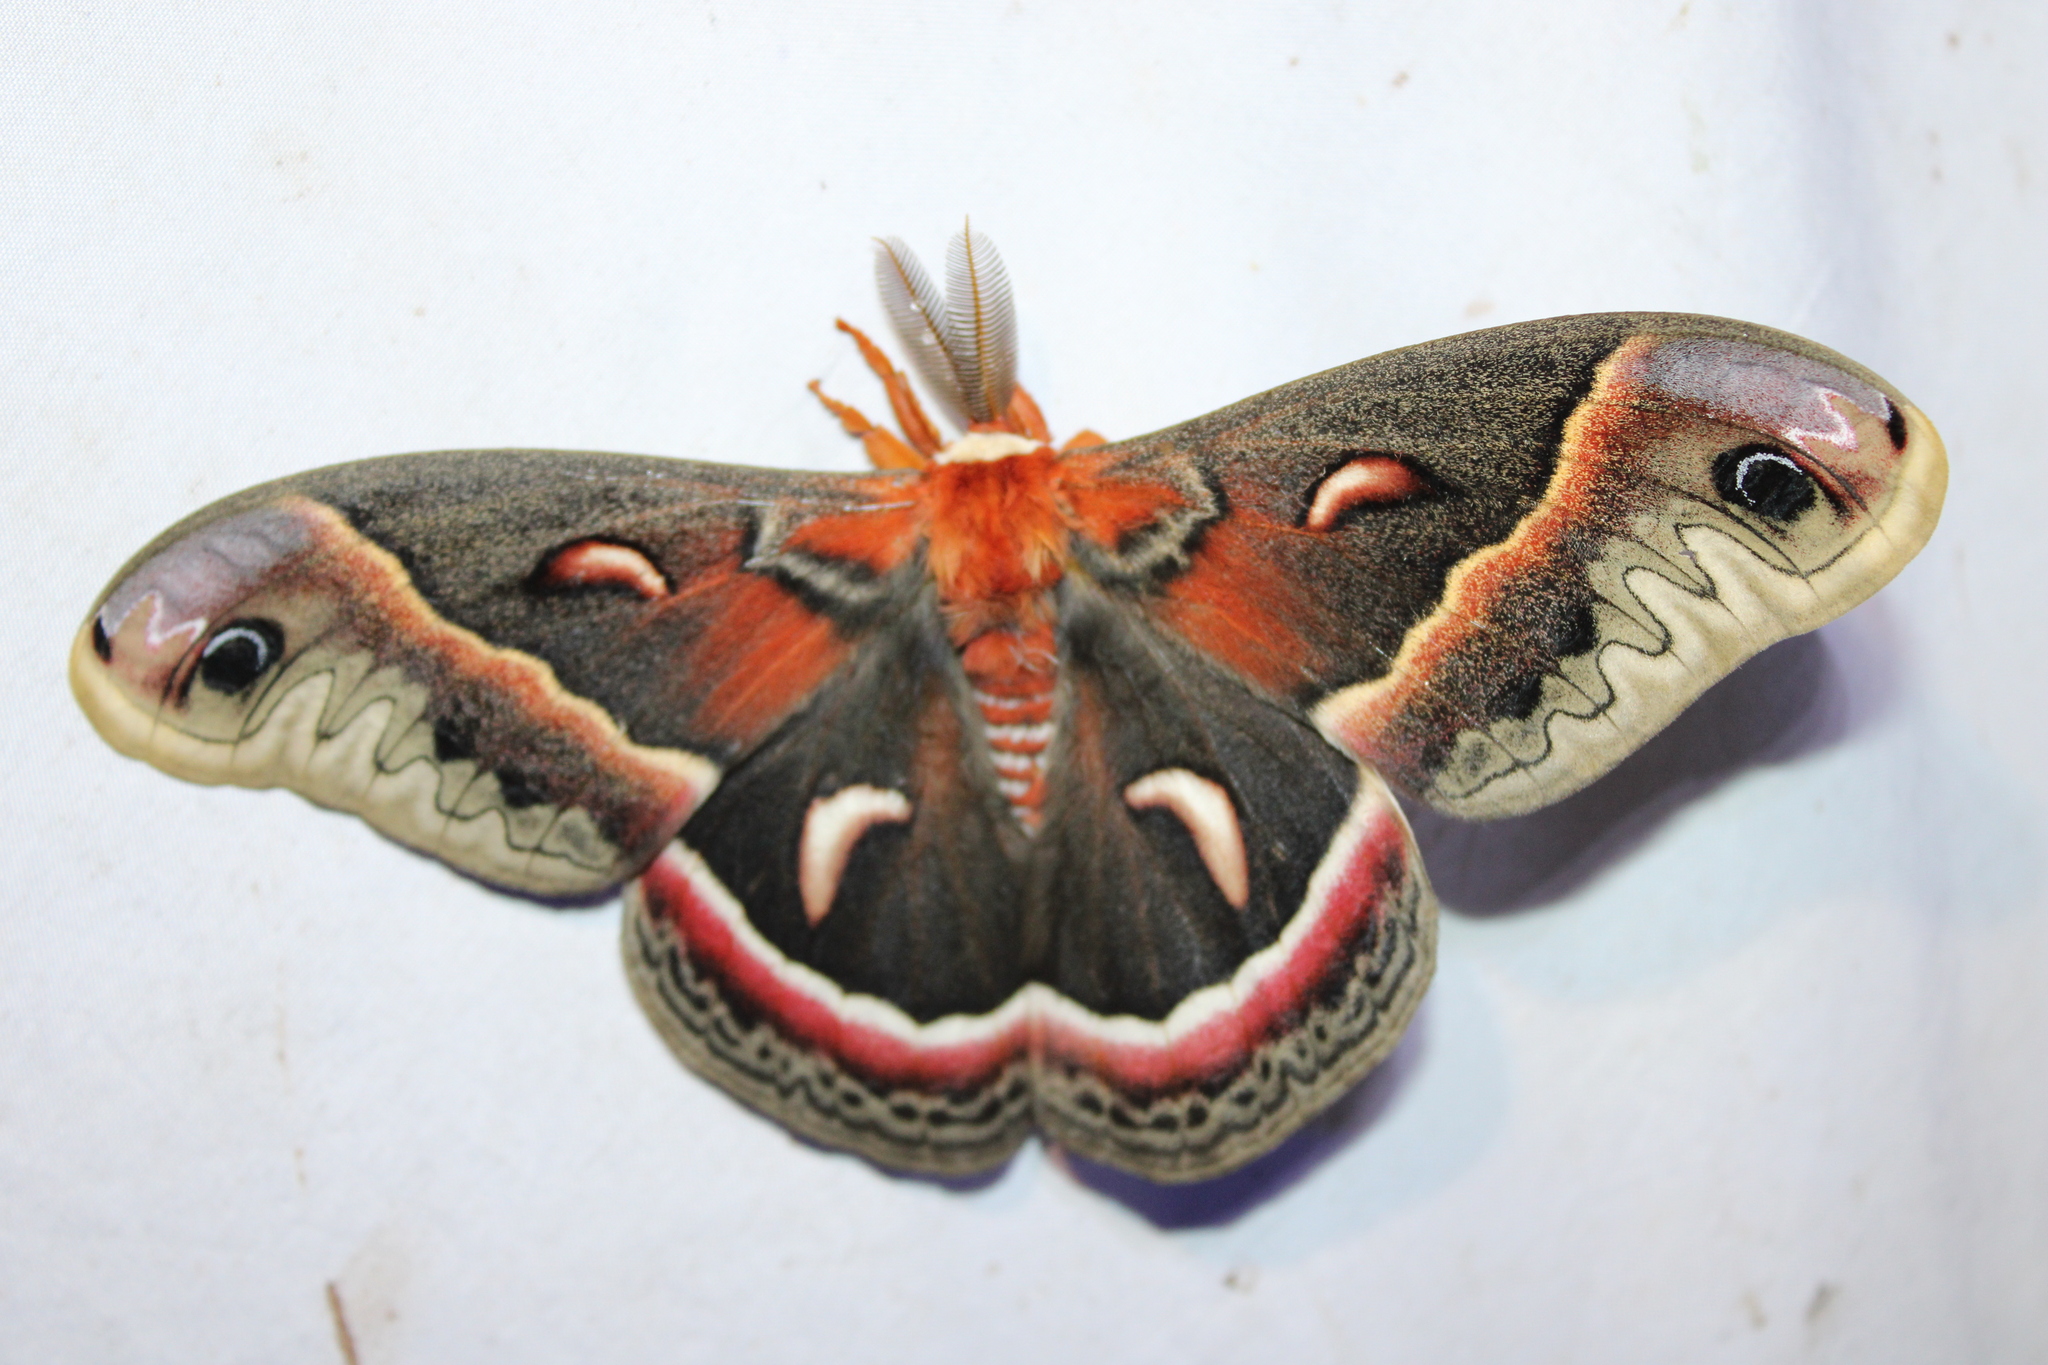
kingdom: Animalia
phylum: Arthropoda
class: Insecta
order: Lepidoptera
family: Saturniidae
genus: Hyalophora
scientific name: Hyalophora cecropia
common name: Cecropia silkmoth
